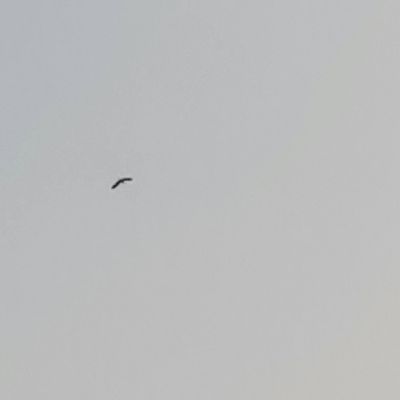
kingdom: Animalia
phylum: Chordata
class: Aves
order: Ciconiiformes
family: Ciconiidae
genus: Ciconia
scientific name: Ciconia nigra
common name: Black stork
